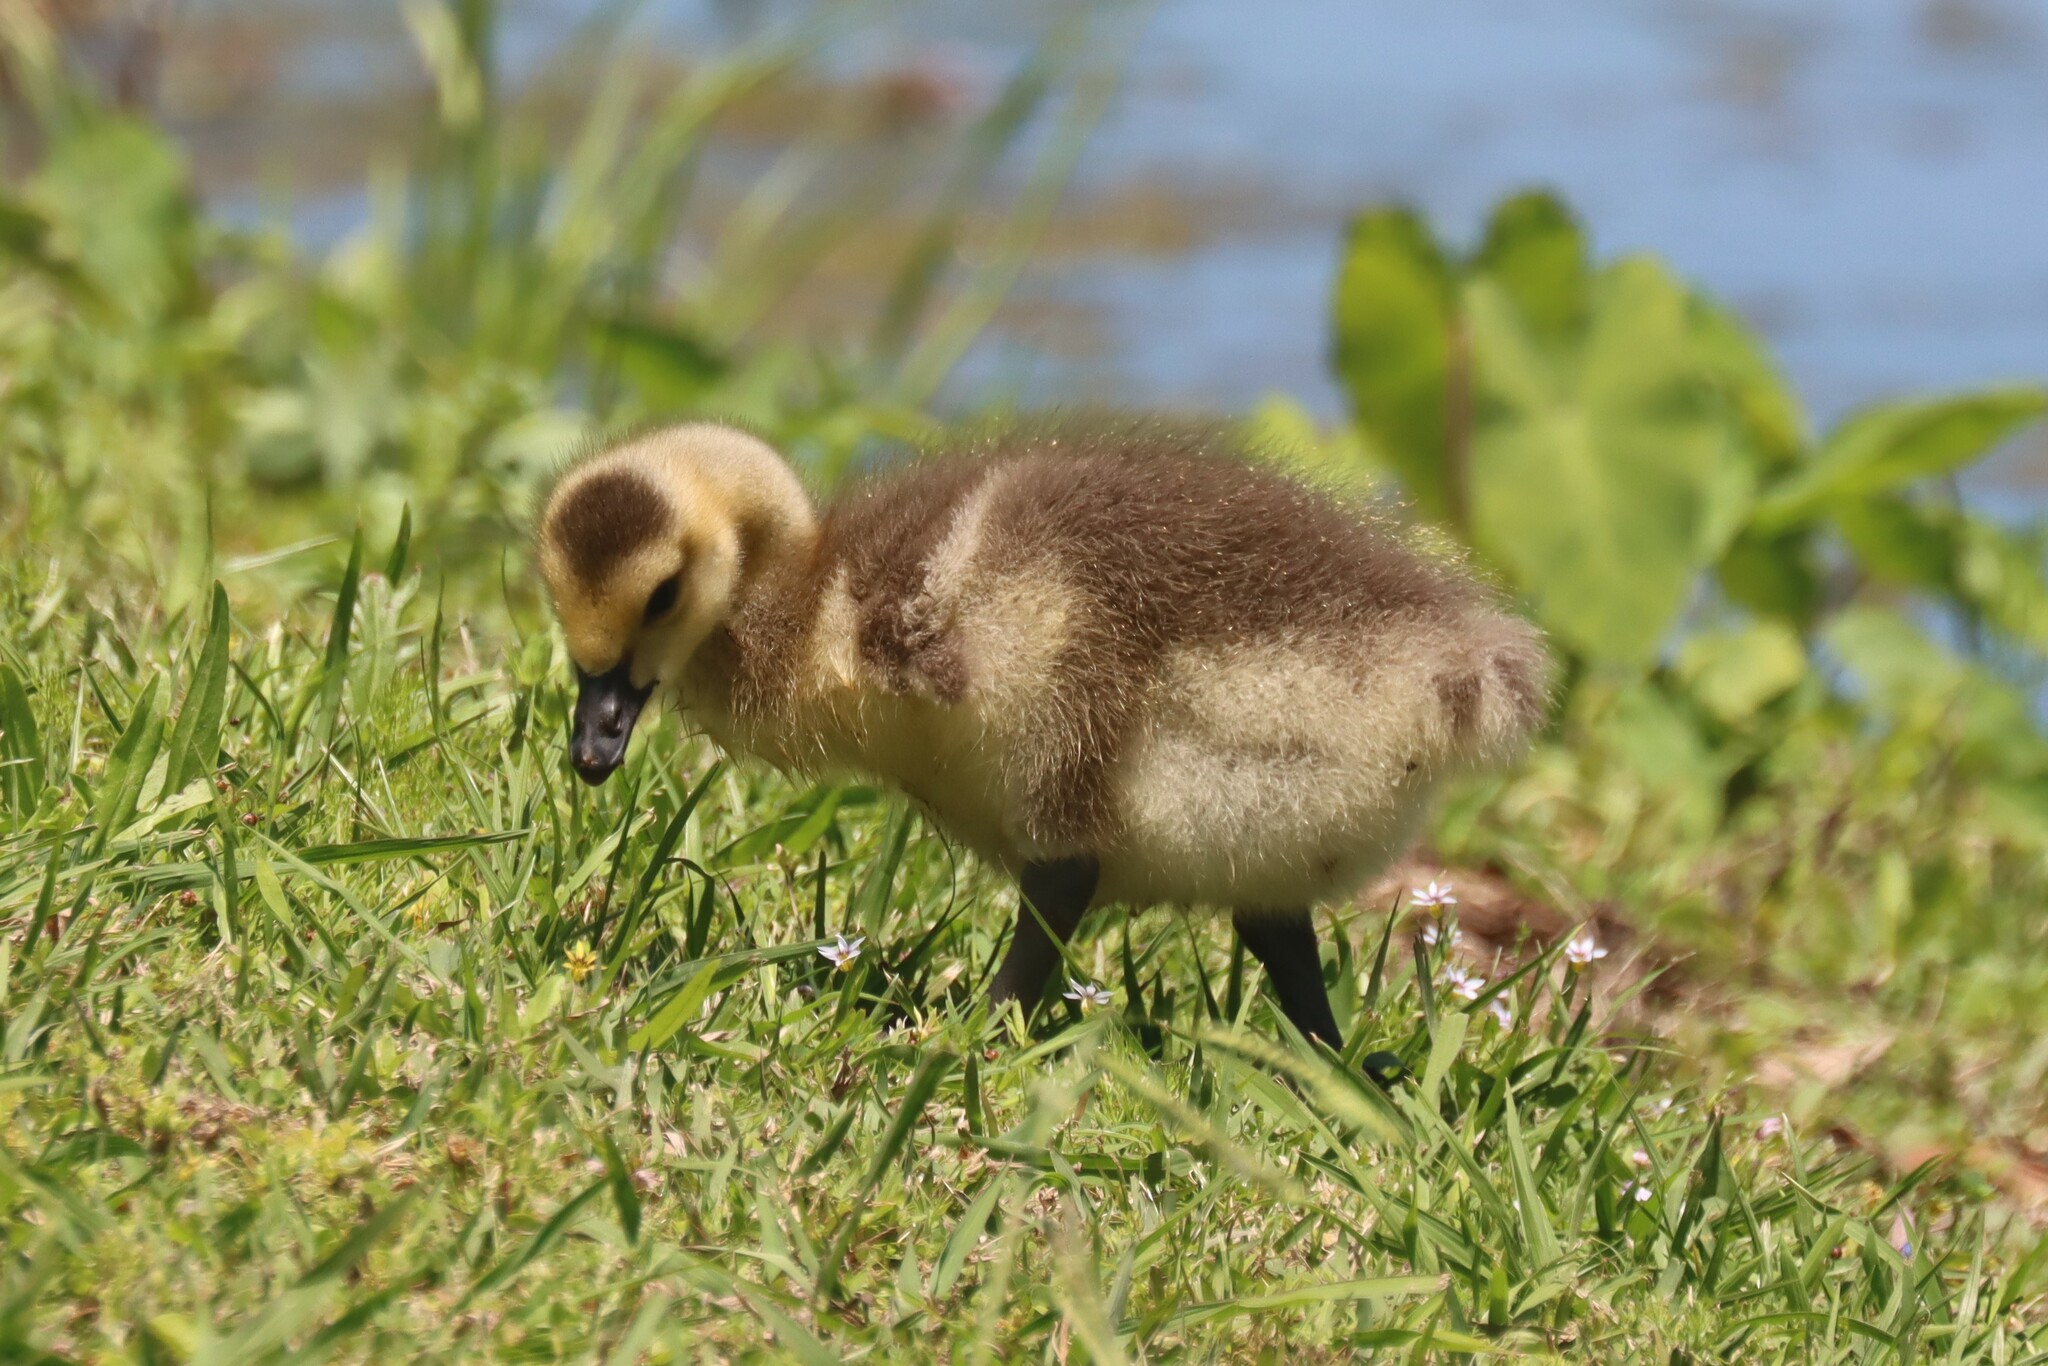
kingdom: Animalia
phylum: Chordata
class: Aves
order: Anseriformes
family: Anatidae
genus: Branta
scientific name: Branta canadensis
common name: Canada goose
